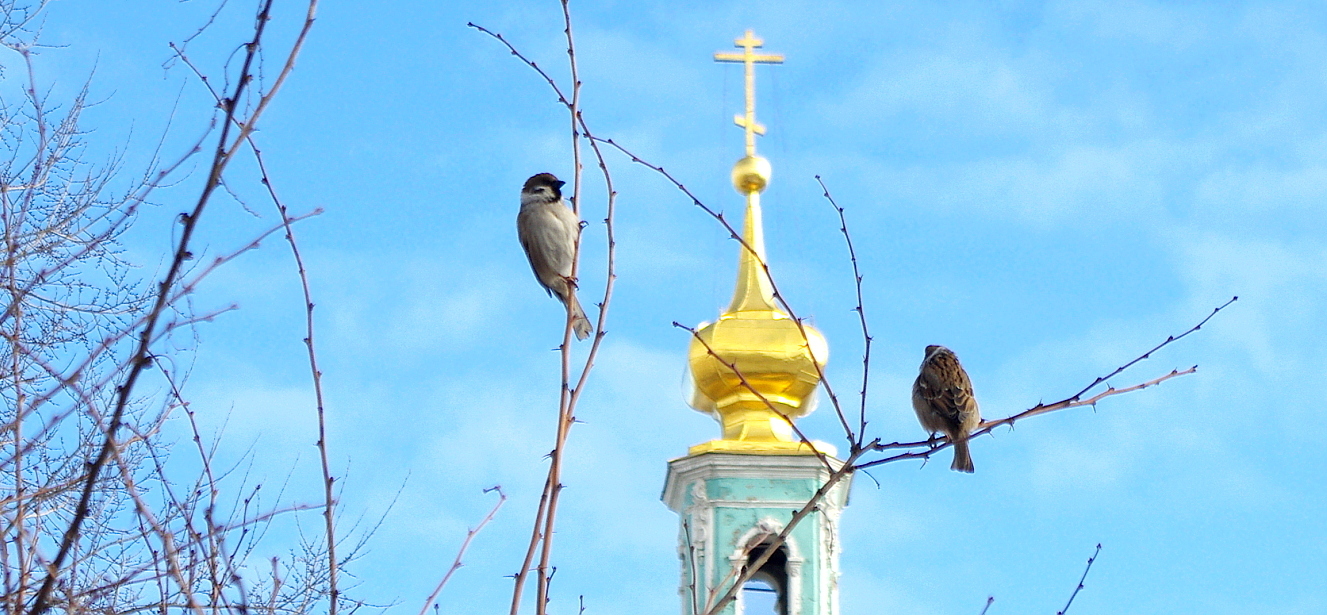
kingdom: Animalia
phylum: Chordata
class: Aves
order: Passeriformes
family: Passeridae
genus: Passer
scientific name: Passer montanus
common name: Eurasian tree sparrow
